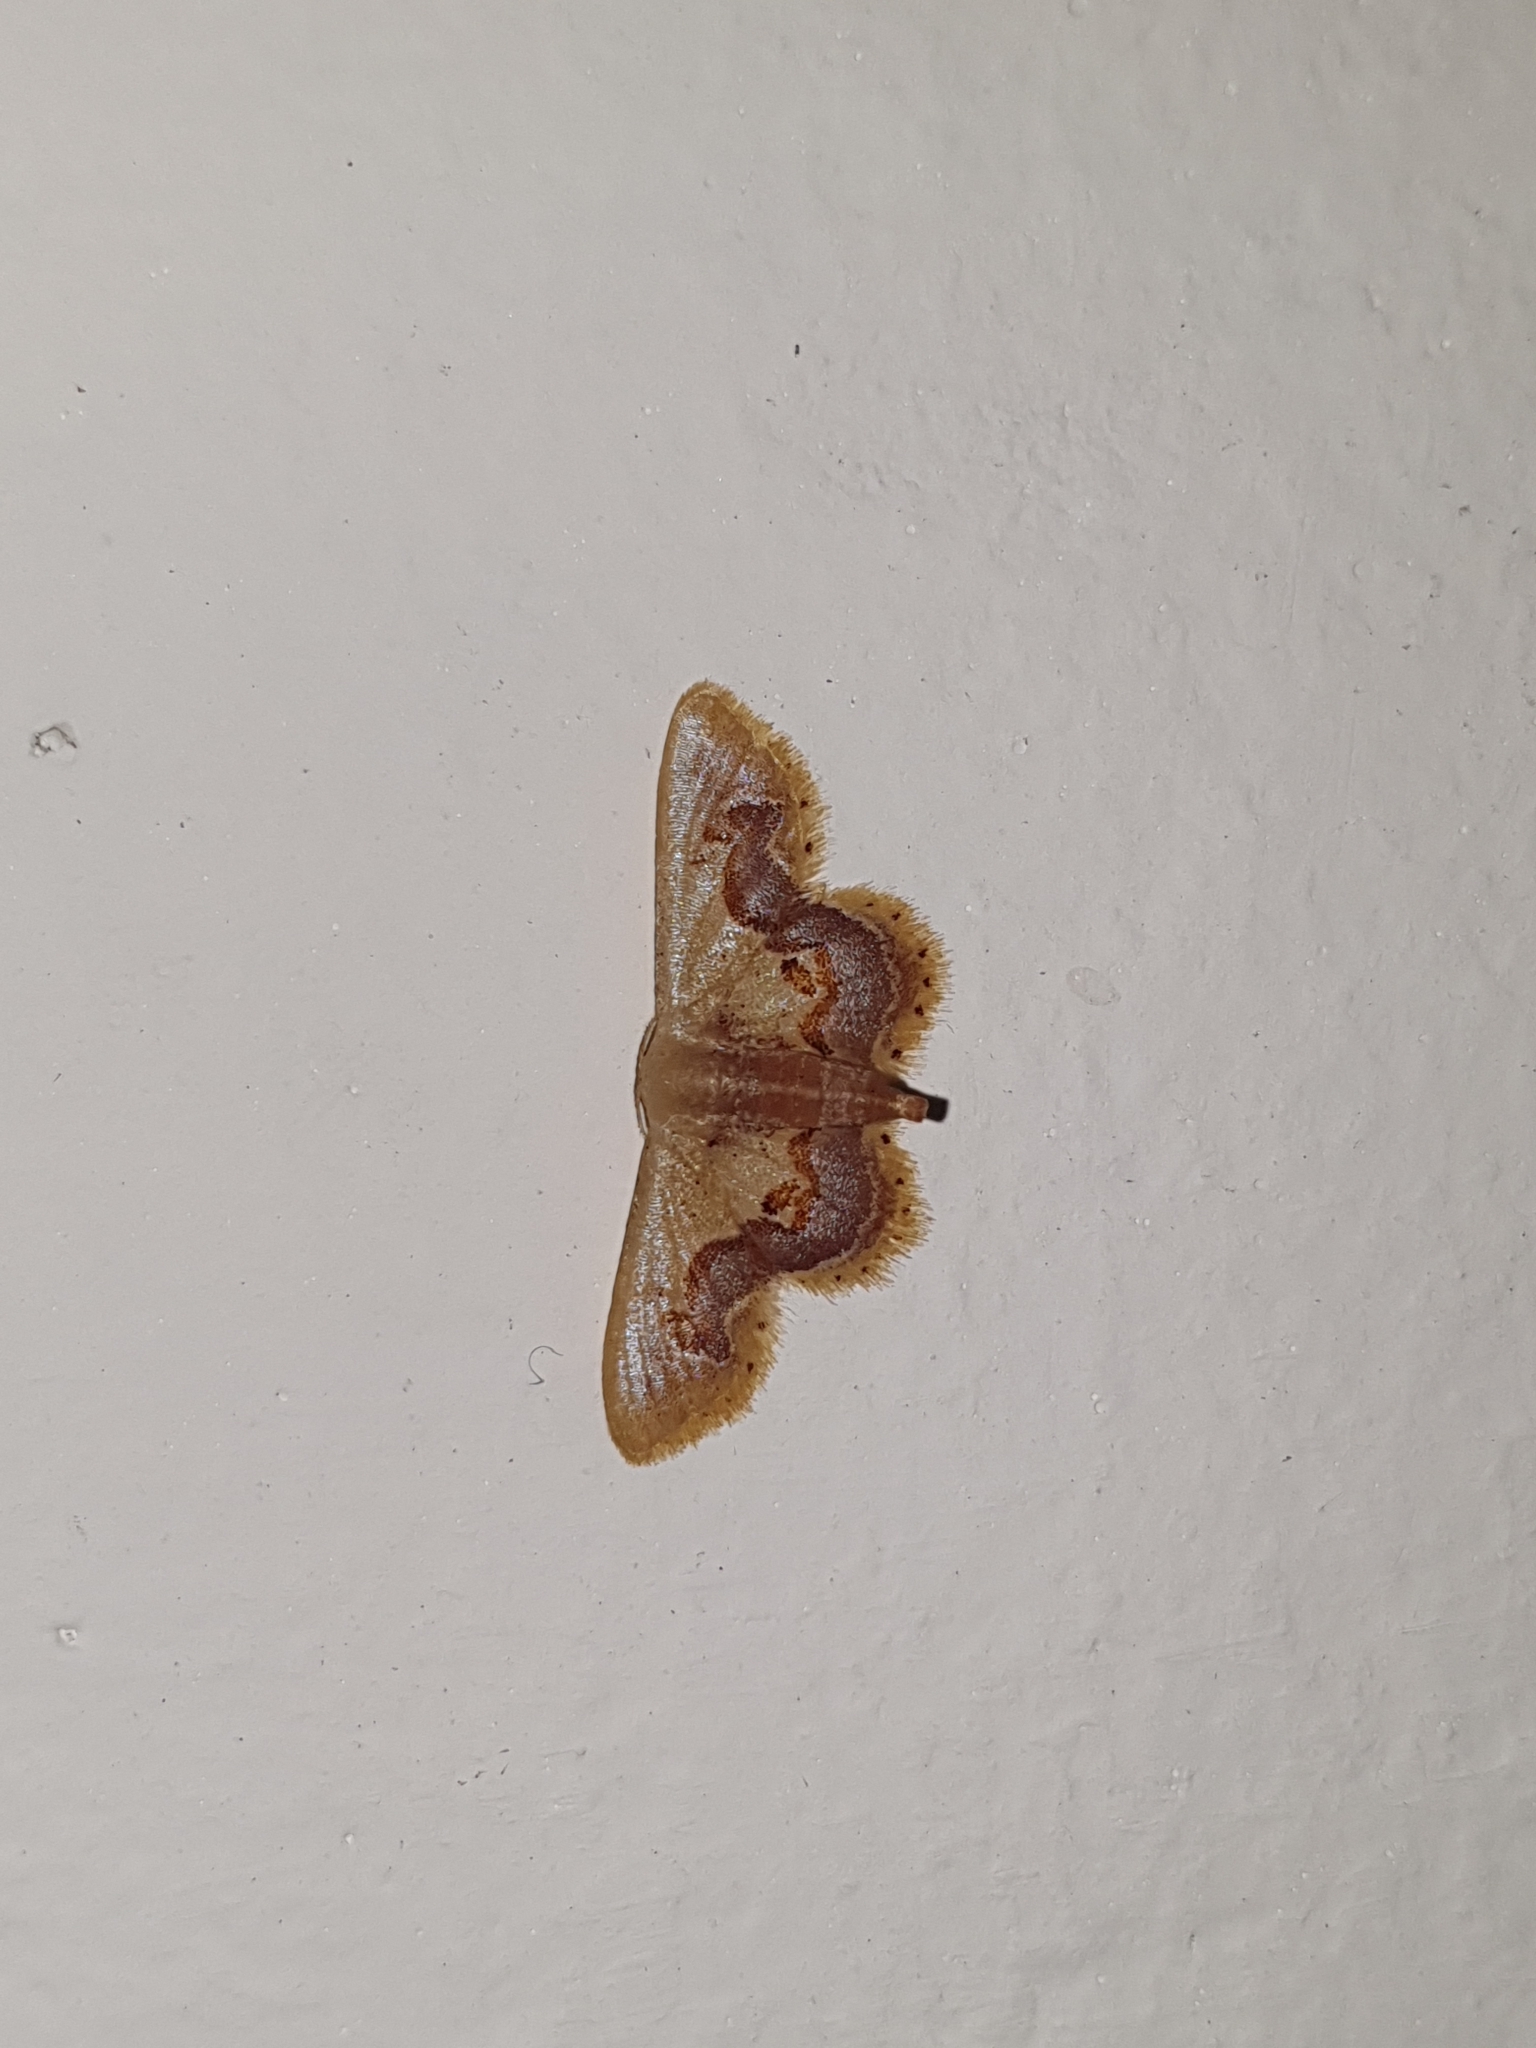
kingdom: Animalia
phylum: Arthropoda
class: Insecta
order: Lepidoptera
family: Geometridae
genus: Idaea
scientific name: Idaea gemmaria
